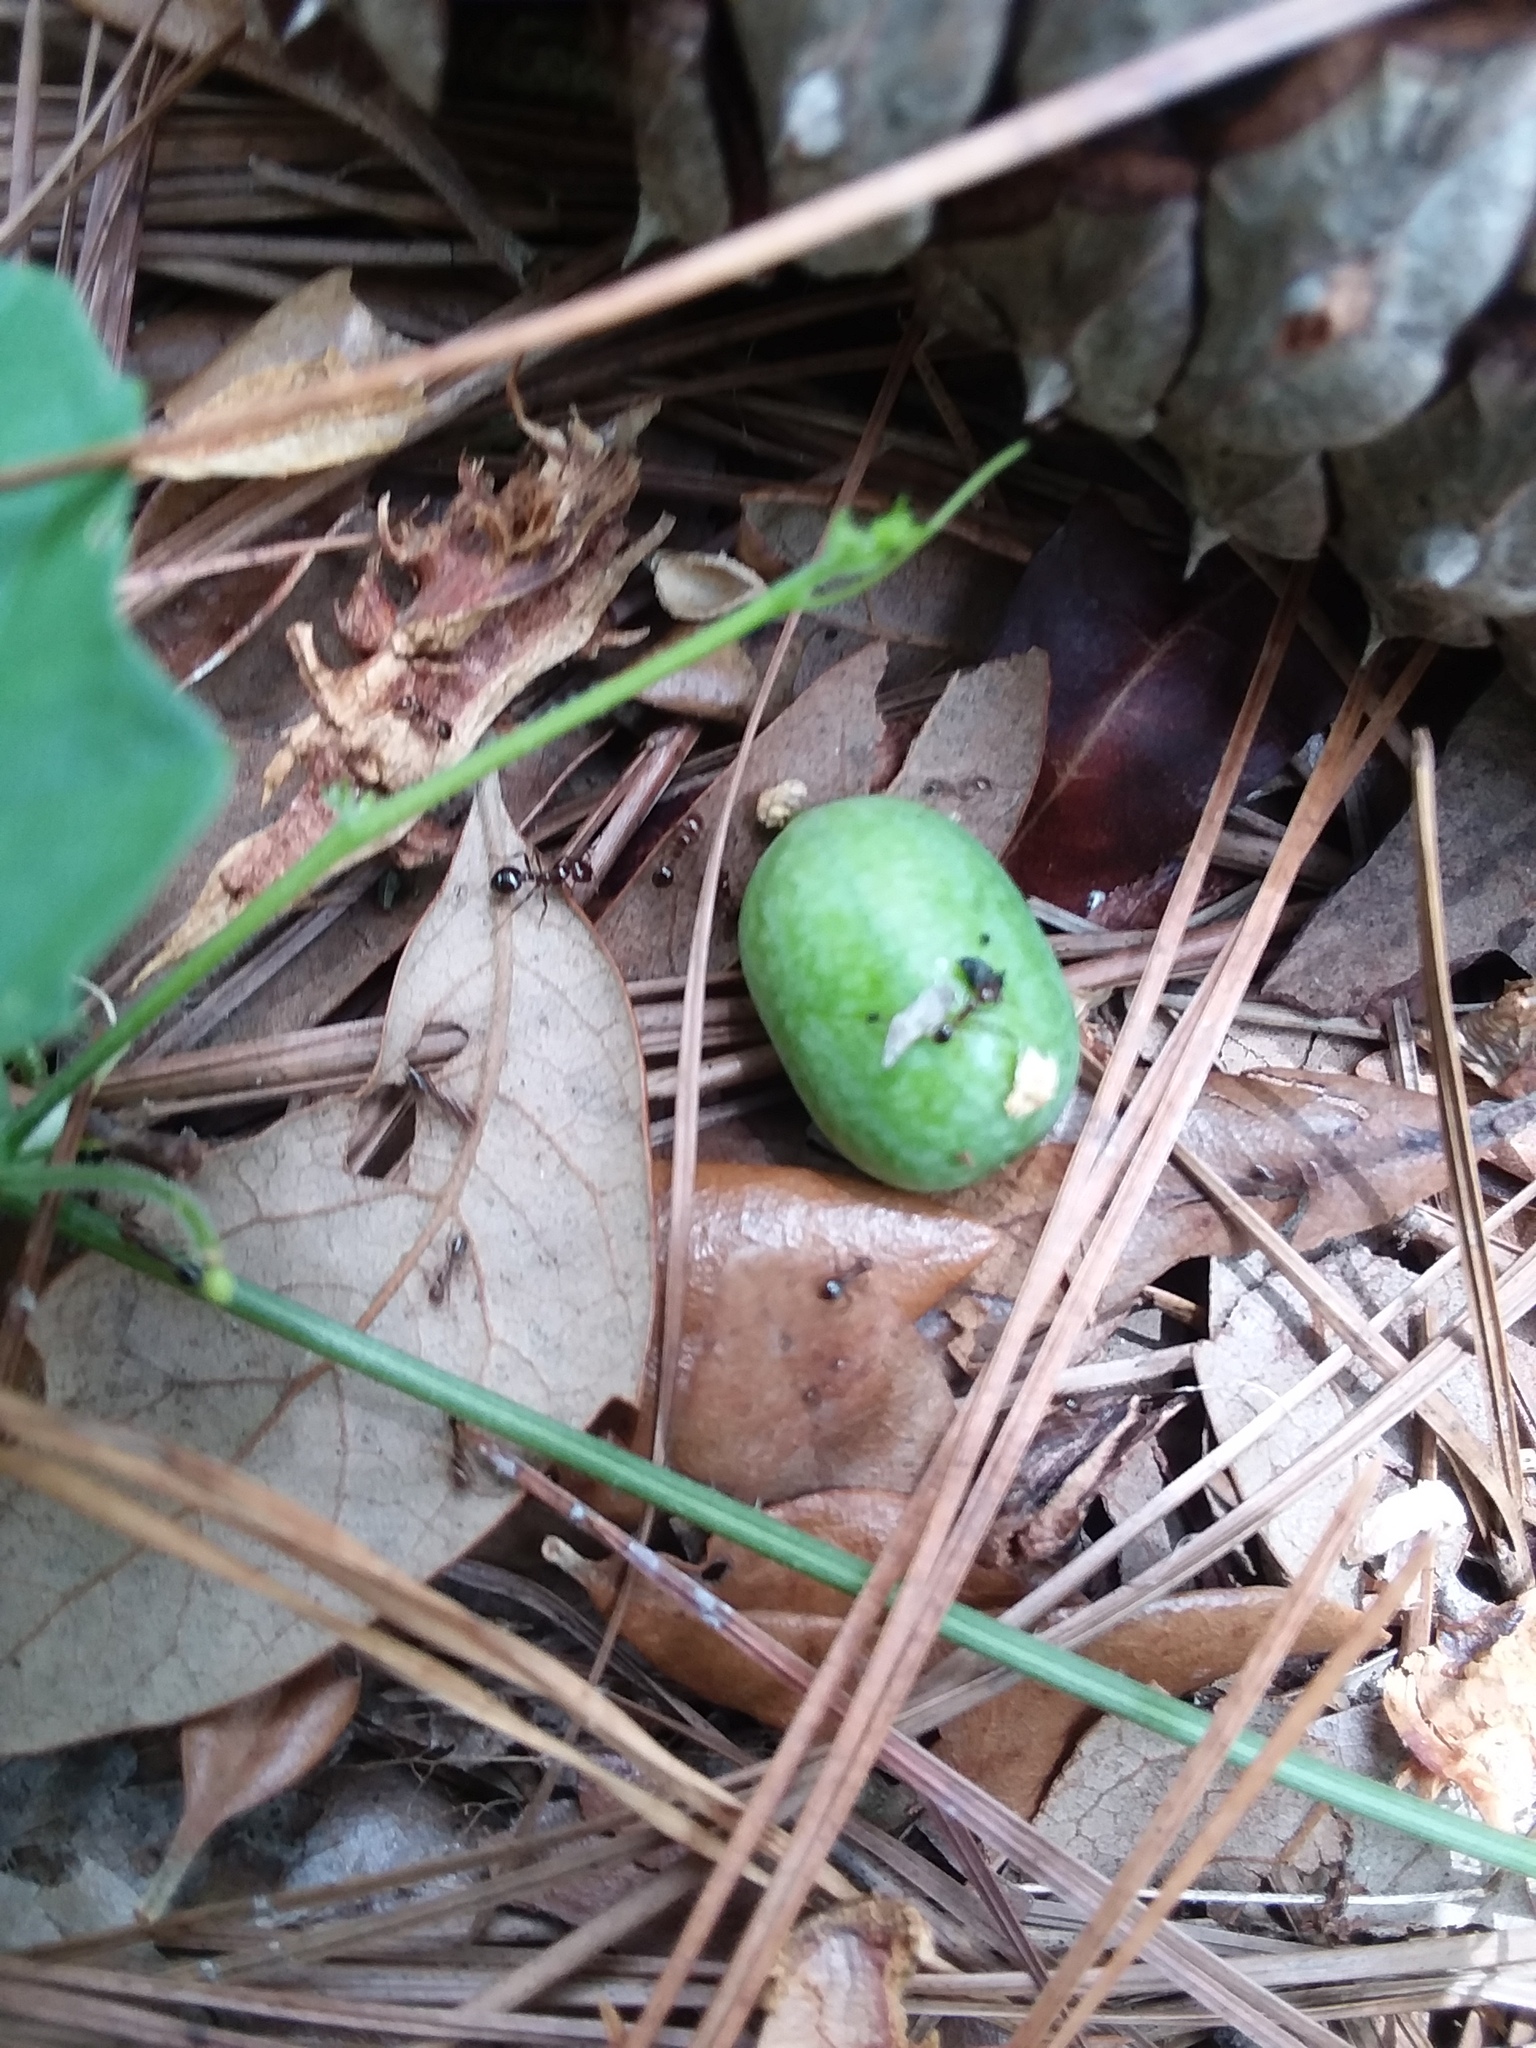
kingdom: Animalia
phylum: Arthropoda
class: Insecta
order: Hymenoptera
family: Formicidae
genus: Solenopsis
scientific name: Solenopsis invicta
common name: Red imported fire ant
